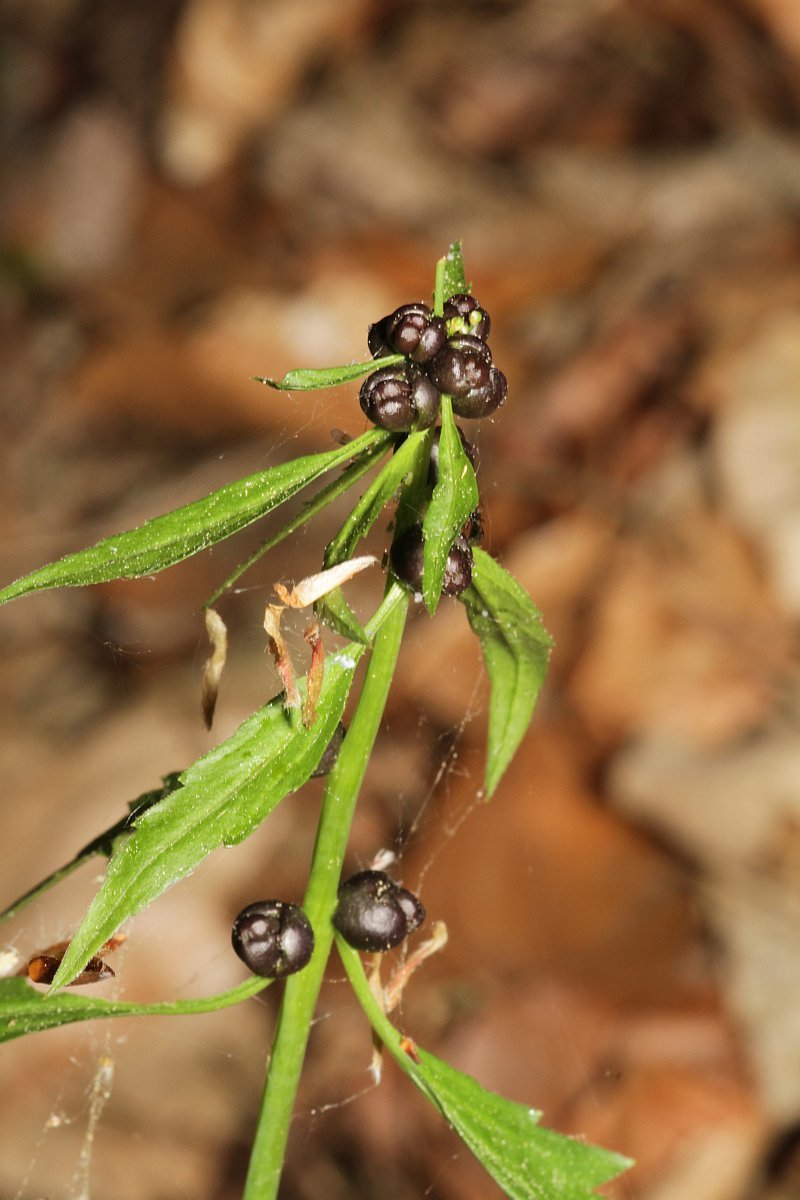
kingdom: Plantae
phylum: Tracheophyta
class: Magnoliopsida
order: Brassicales
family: Brassicaceae
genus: Cardamine
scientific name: Cardamine bulbifera
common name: Coralroot bittercress
